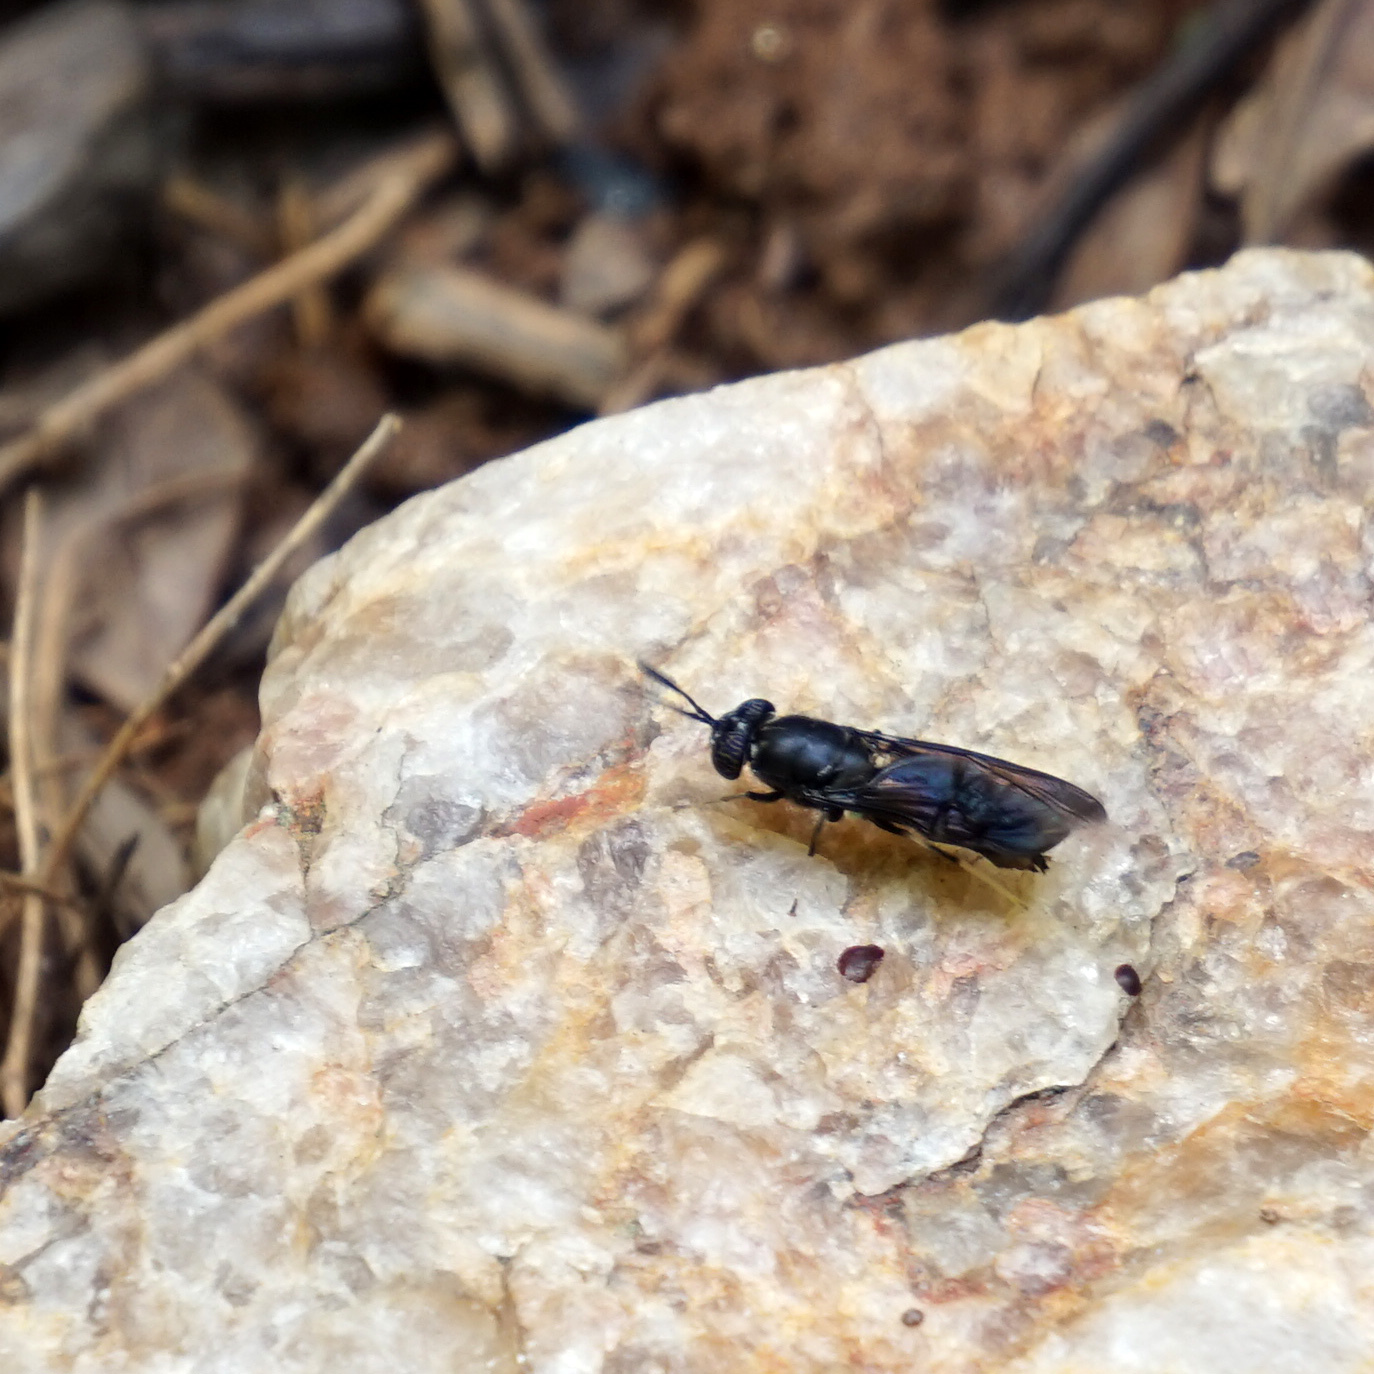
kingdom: Animalia
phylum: Arthropoda
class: Insecta
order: Diptera
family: Stratiomyidae
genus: Hermetia
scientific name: Hermetia illucens
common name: Black soldier fly
